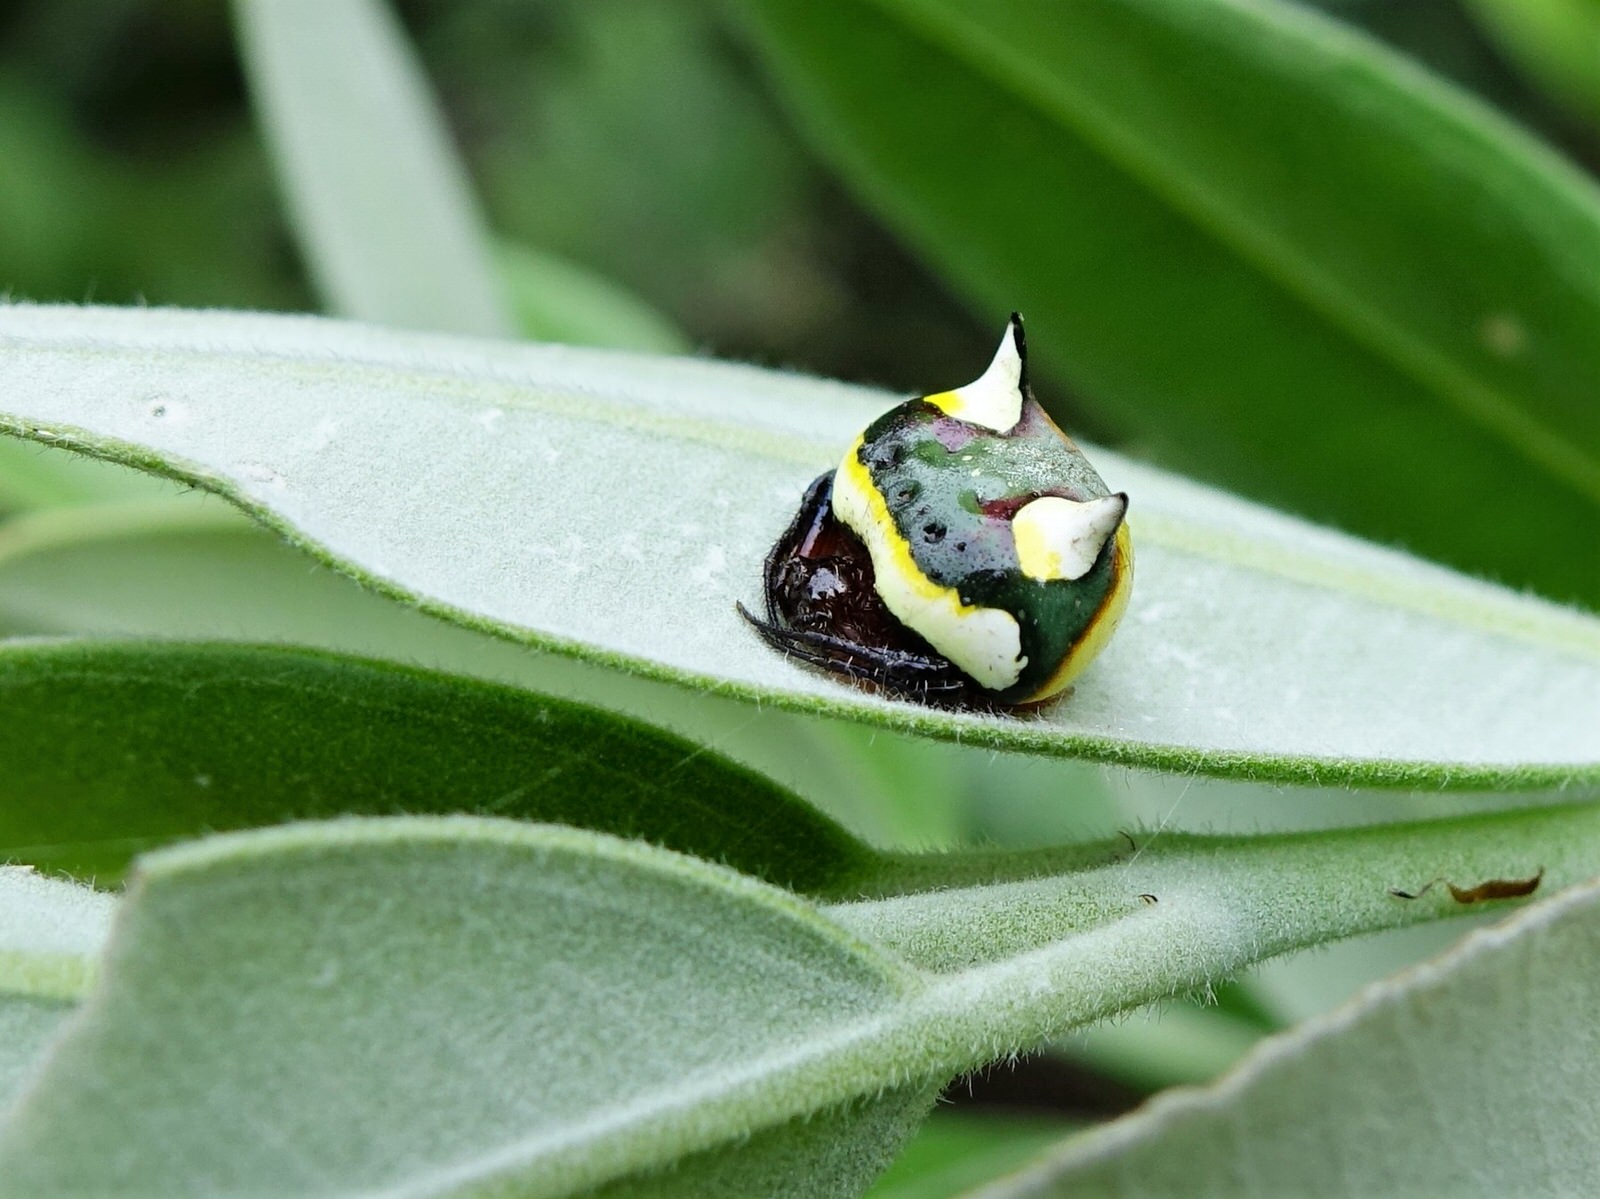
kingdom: Animalia
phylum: Arthropoda
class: Arachnida
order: Araneae
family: Araneidae
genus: Poecilopachys
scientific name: Poecilopachys australasia
